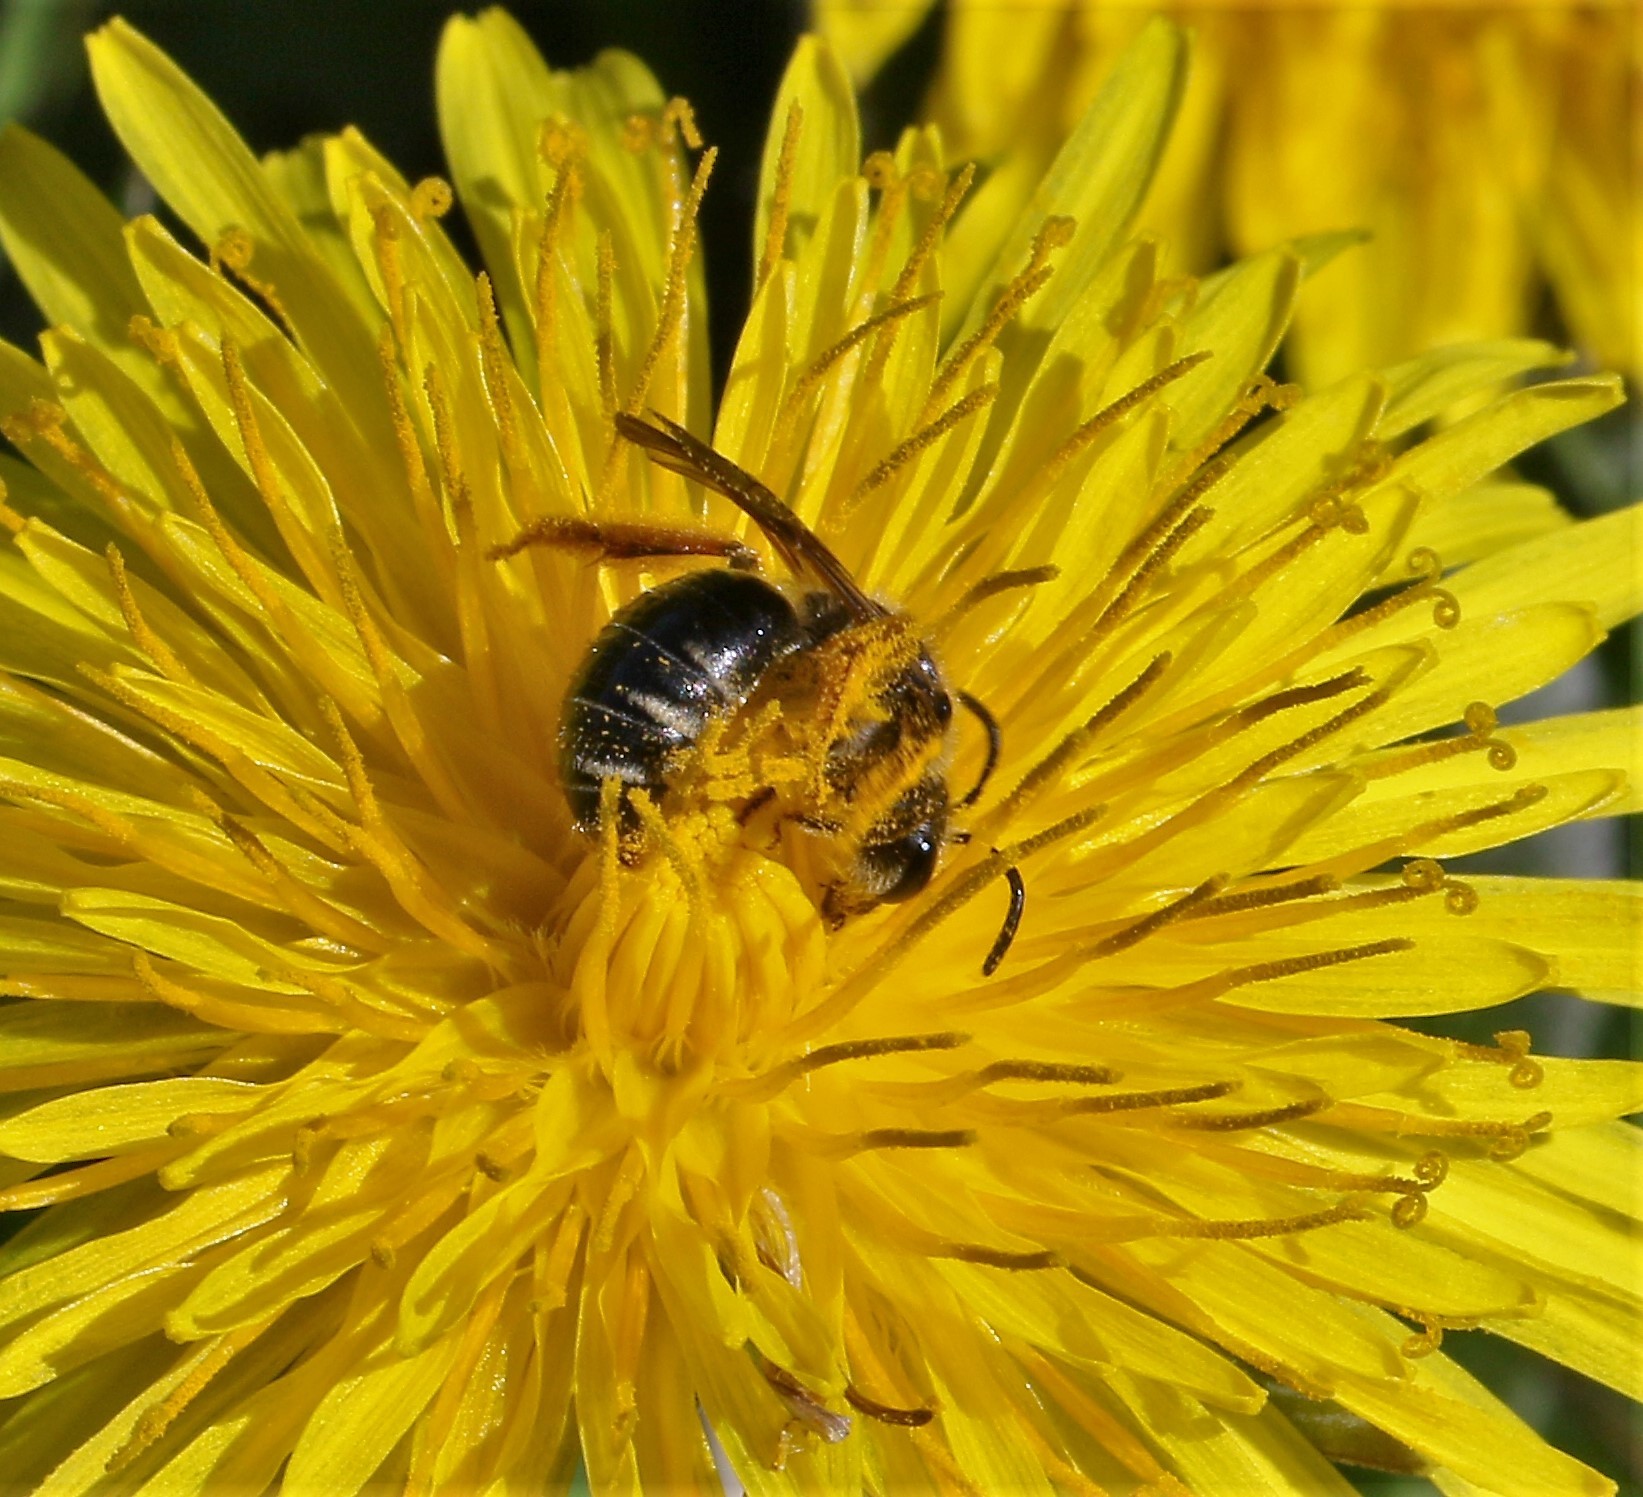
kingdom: Animalia
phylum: Arthropoda
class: Insecta
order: Hymenoptera
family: Andrenidae
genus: Andrena
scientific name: Andrena
